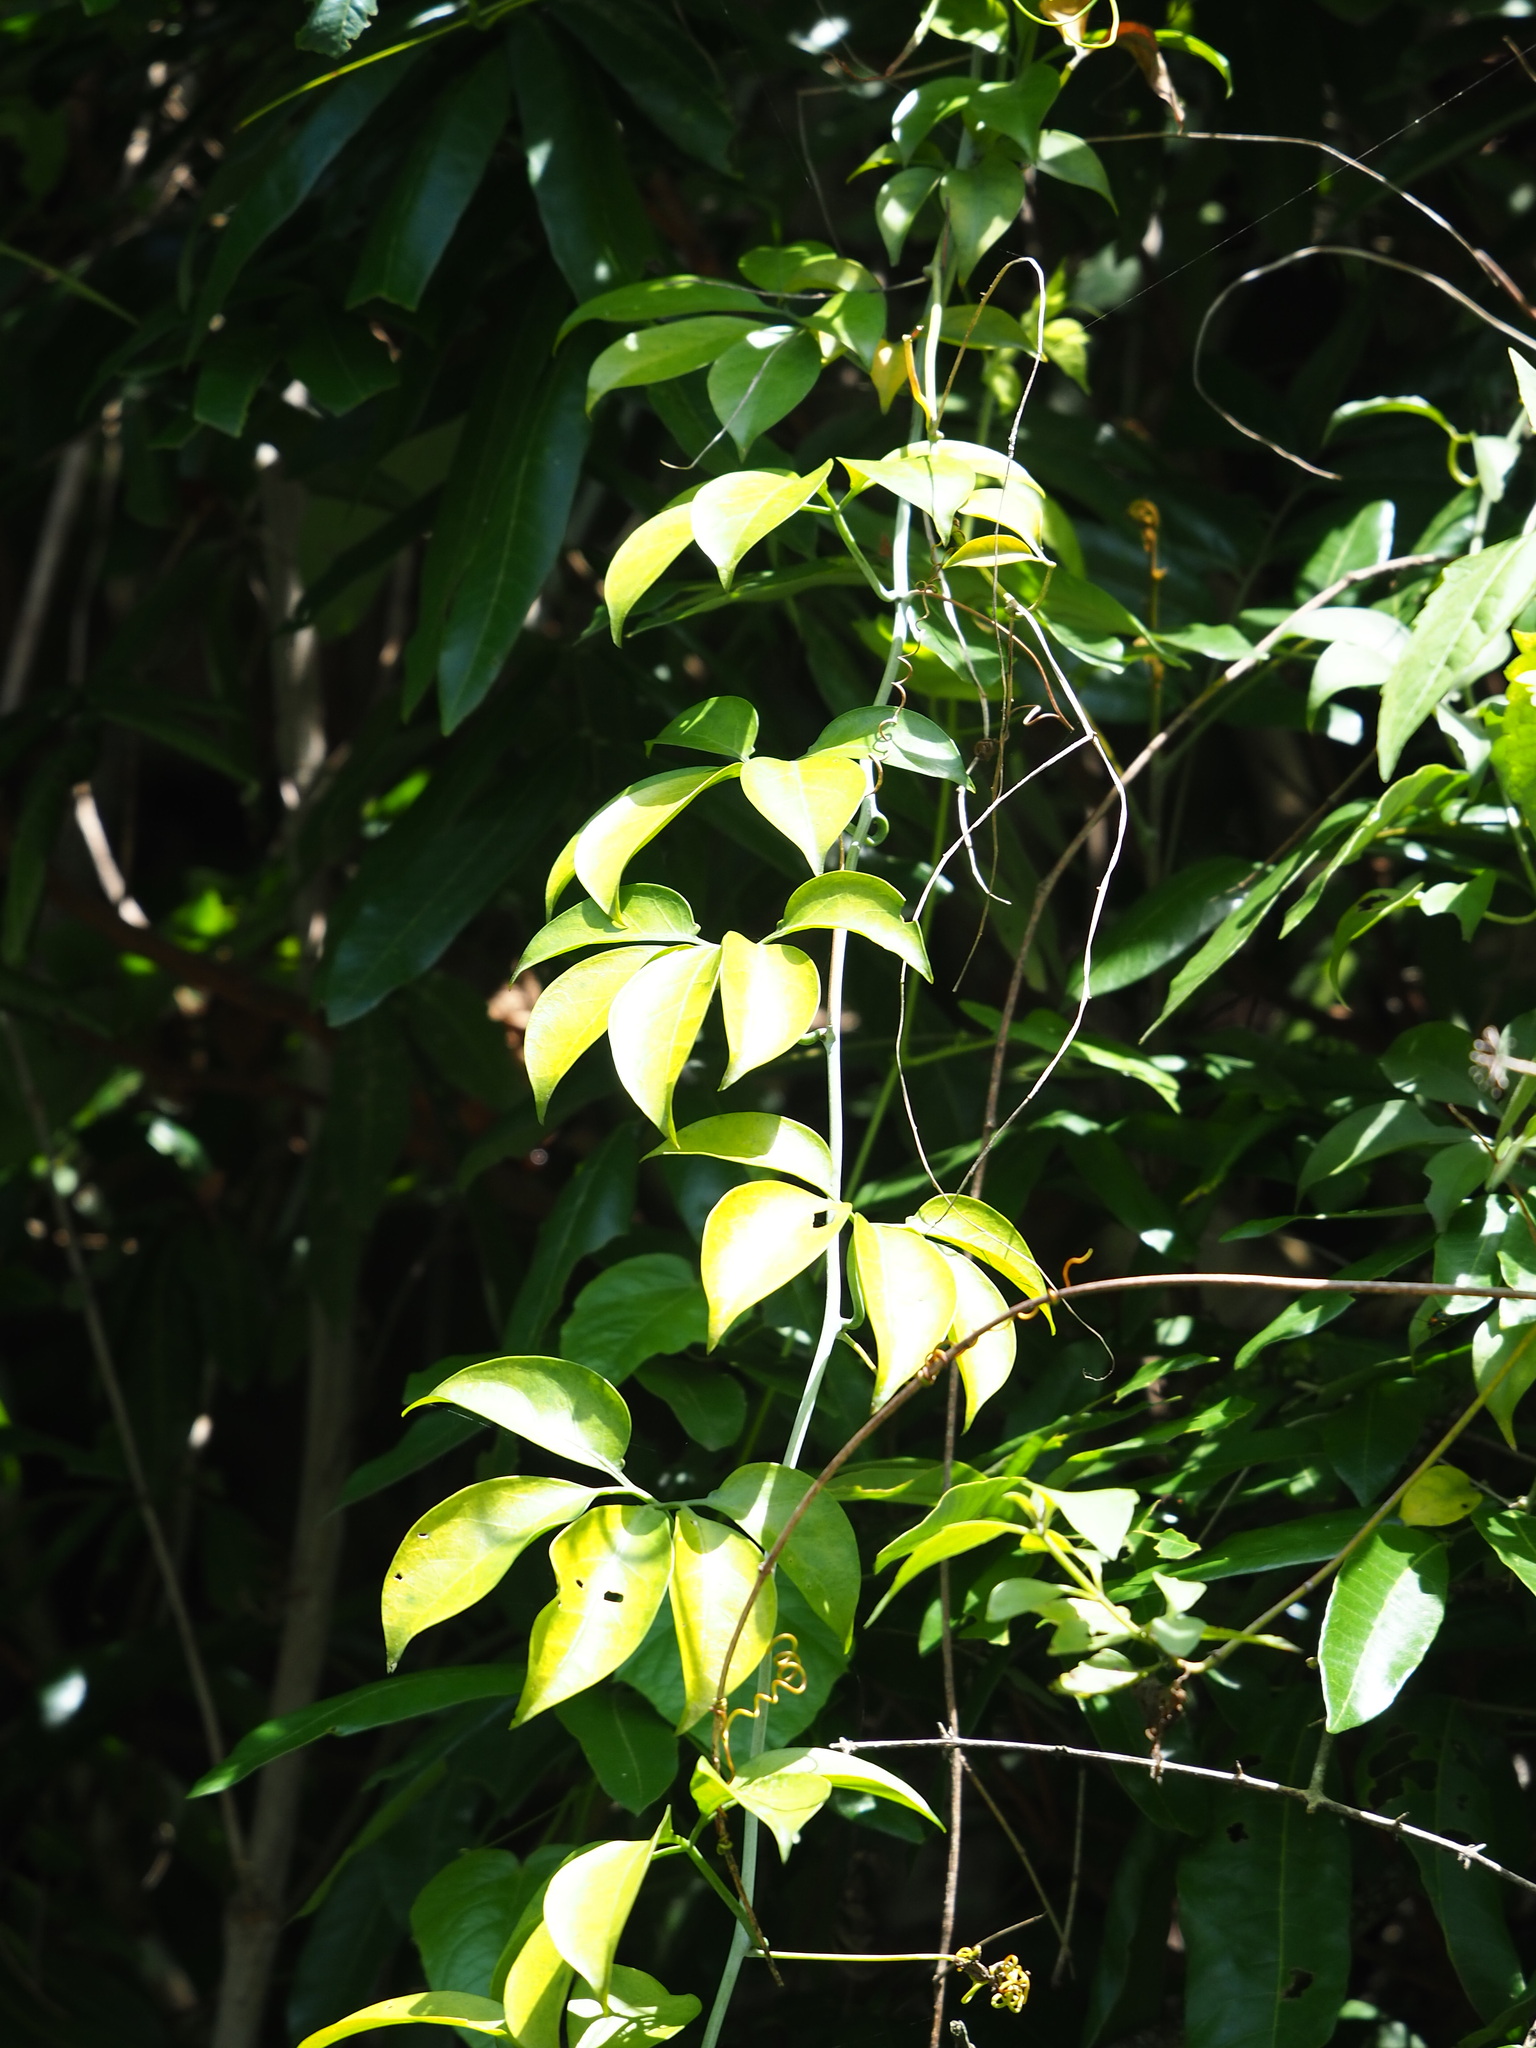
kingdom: Plantae
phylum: Tracheophyta
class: Magnoliopsida
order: Cucurbitales
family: Cucurbitaceae
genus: Neoalsomitra
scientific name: Neoalsomitra clavigera
